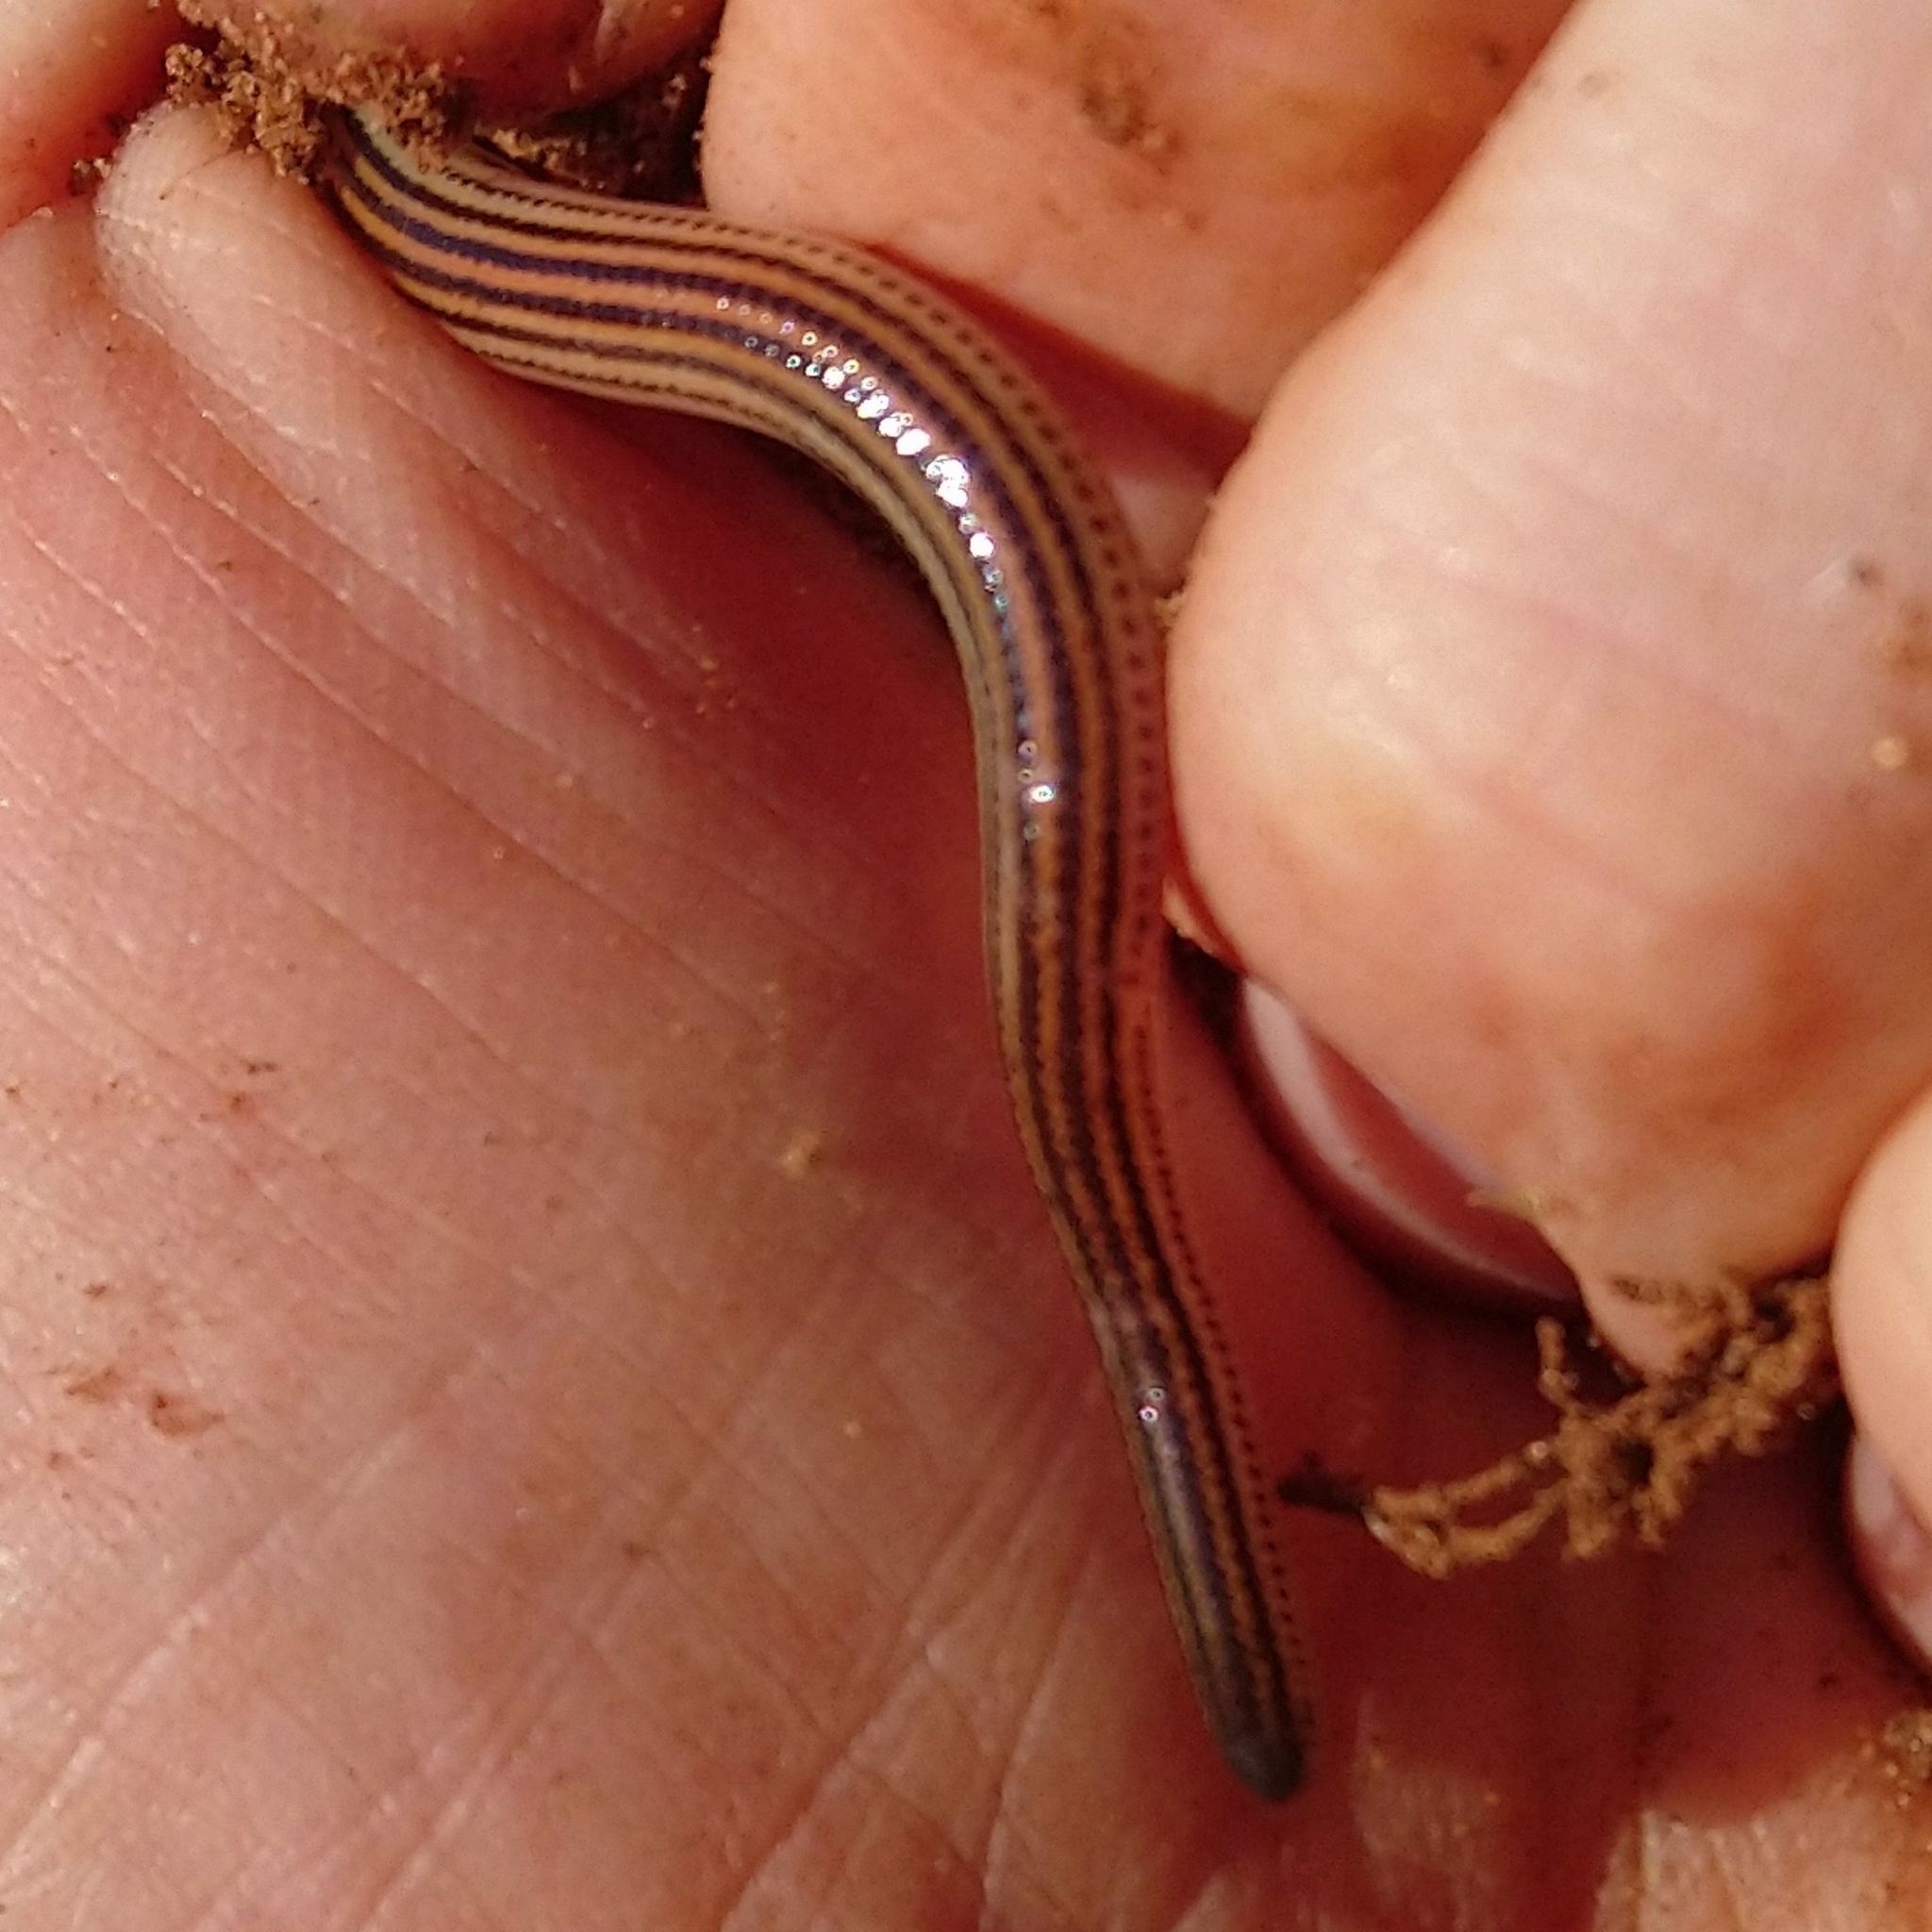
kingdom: Animalia
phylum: Chordata
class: Squamata
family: Scincidae
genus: Acontias
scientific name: Acontias orientalis
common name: Eastern cape legless skink
